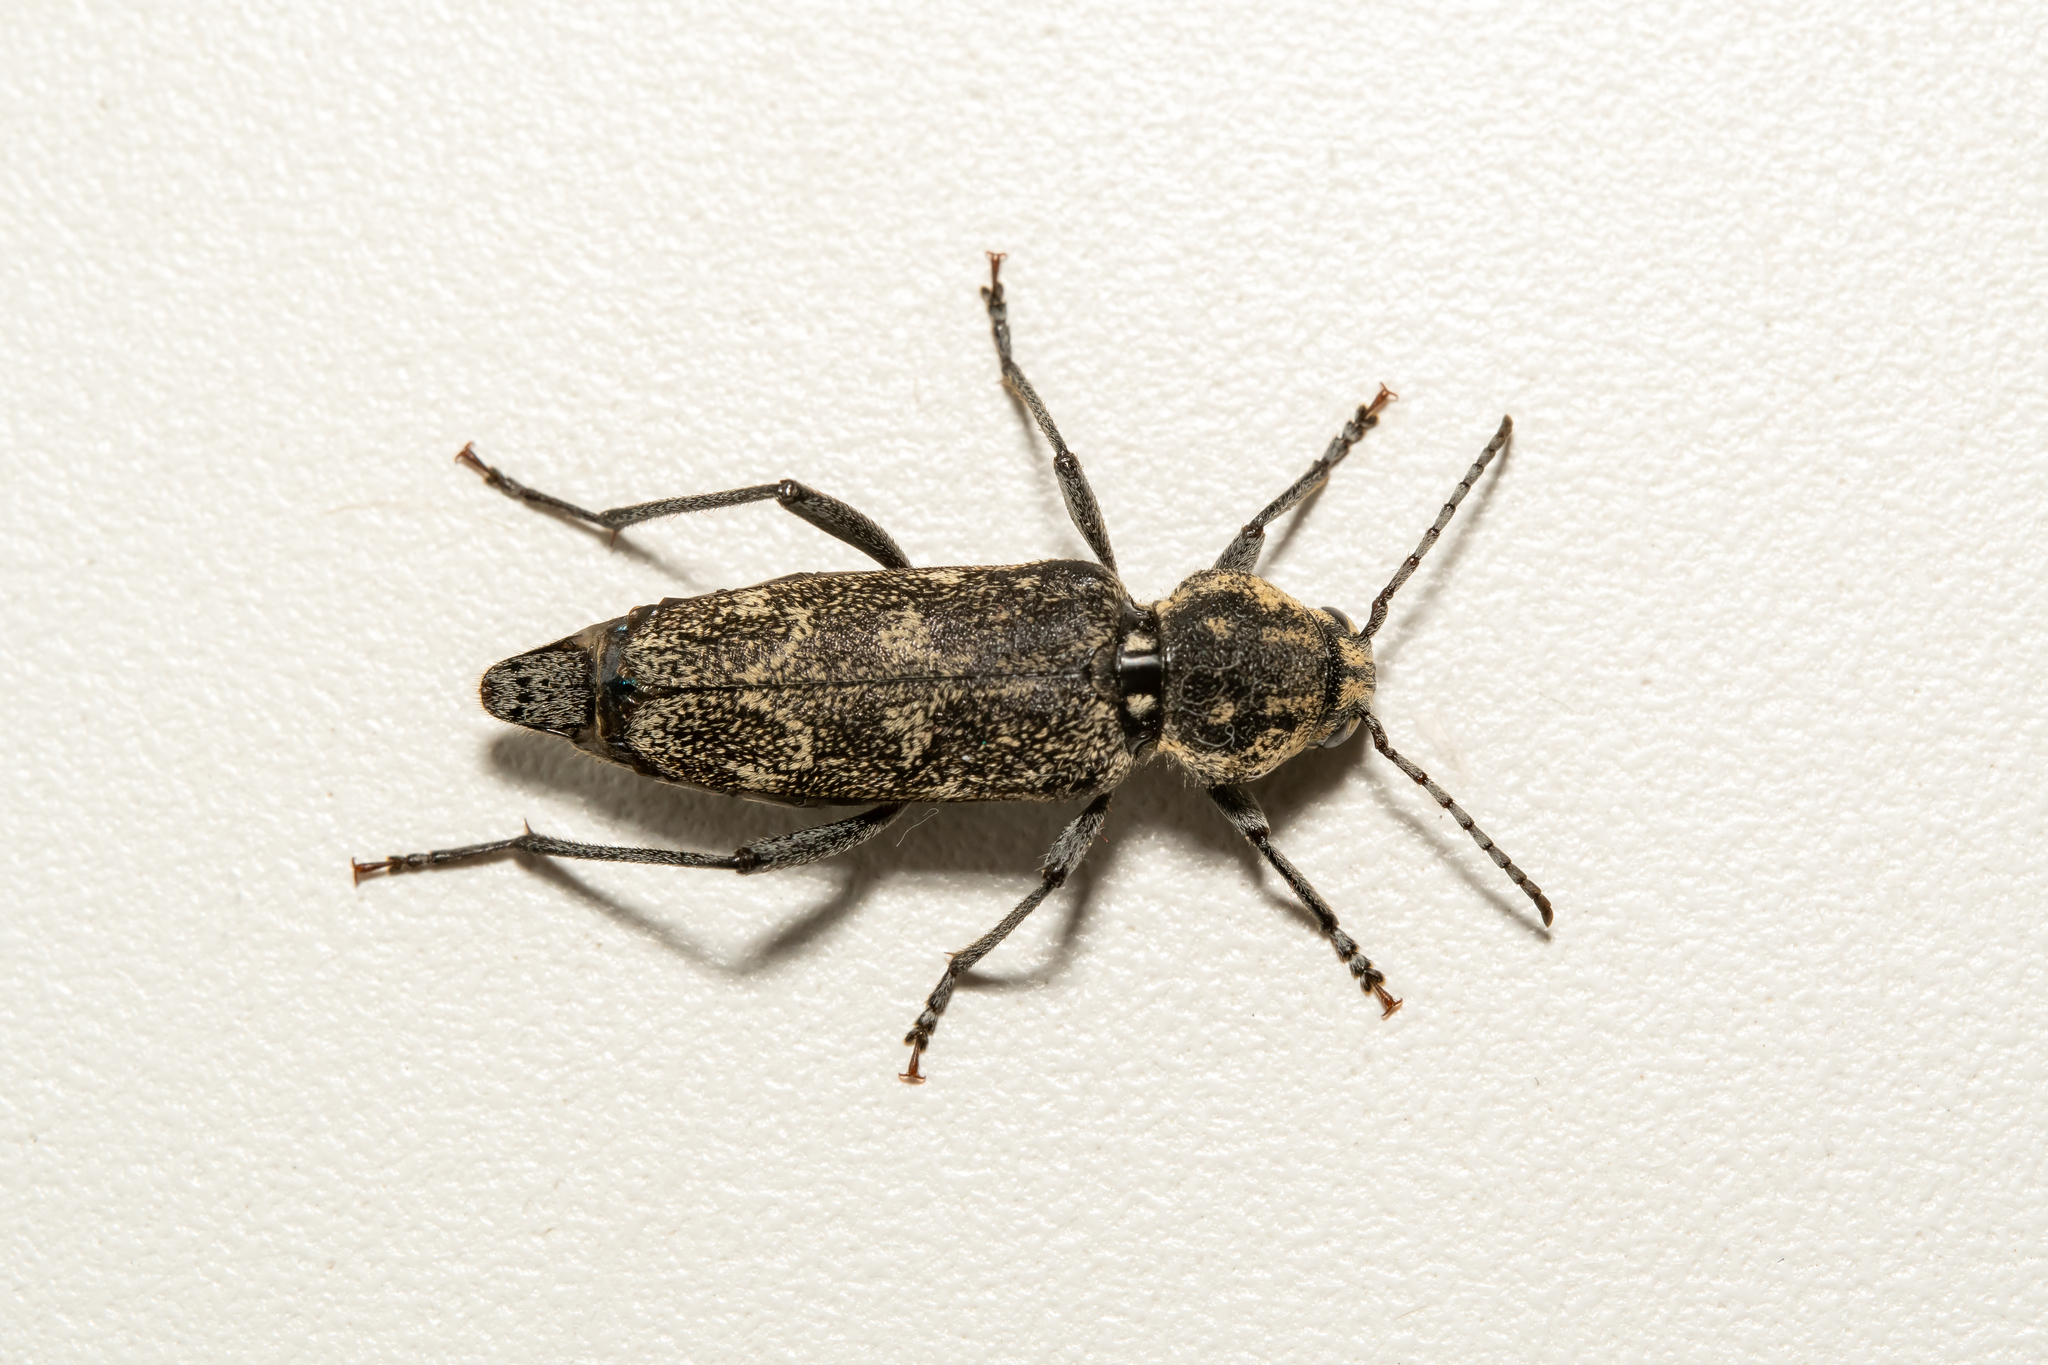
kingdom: Animalia
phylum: Arthropoda
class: Insecta
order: Coleoptera
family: Cerambycidae
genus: Xylotrechus
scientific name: Xylotrechus rusticus
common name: Grey tiger long-horned beetle
